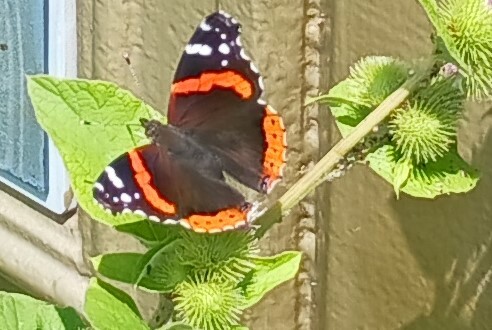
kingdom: Animalia
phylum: Arthropoda
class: Insecta
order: Lepidoptera
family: Nymphalidae
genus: Vanessa
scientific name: Vanessa atalanta
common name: Red admiral
